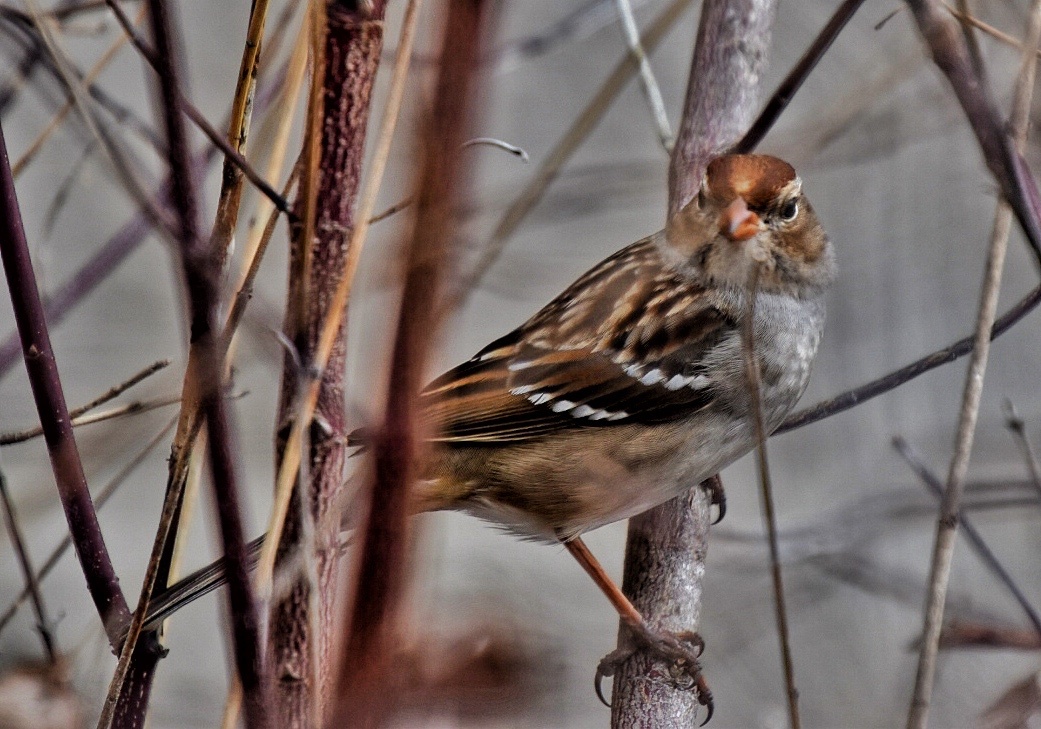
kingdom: Animalia
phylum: Chordata
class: Aves
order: Passeriformes
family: Passerellidae
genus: Zonotrichia
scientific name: Zonotrichia leucophrys
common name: White-crowned sparrow
